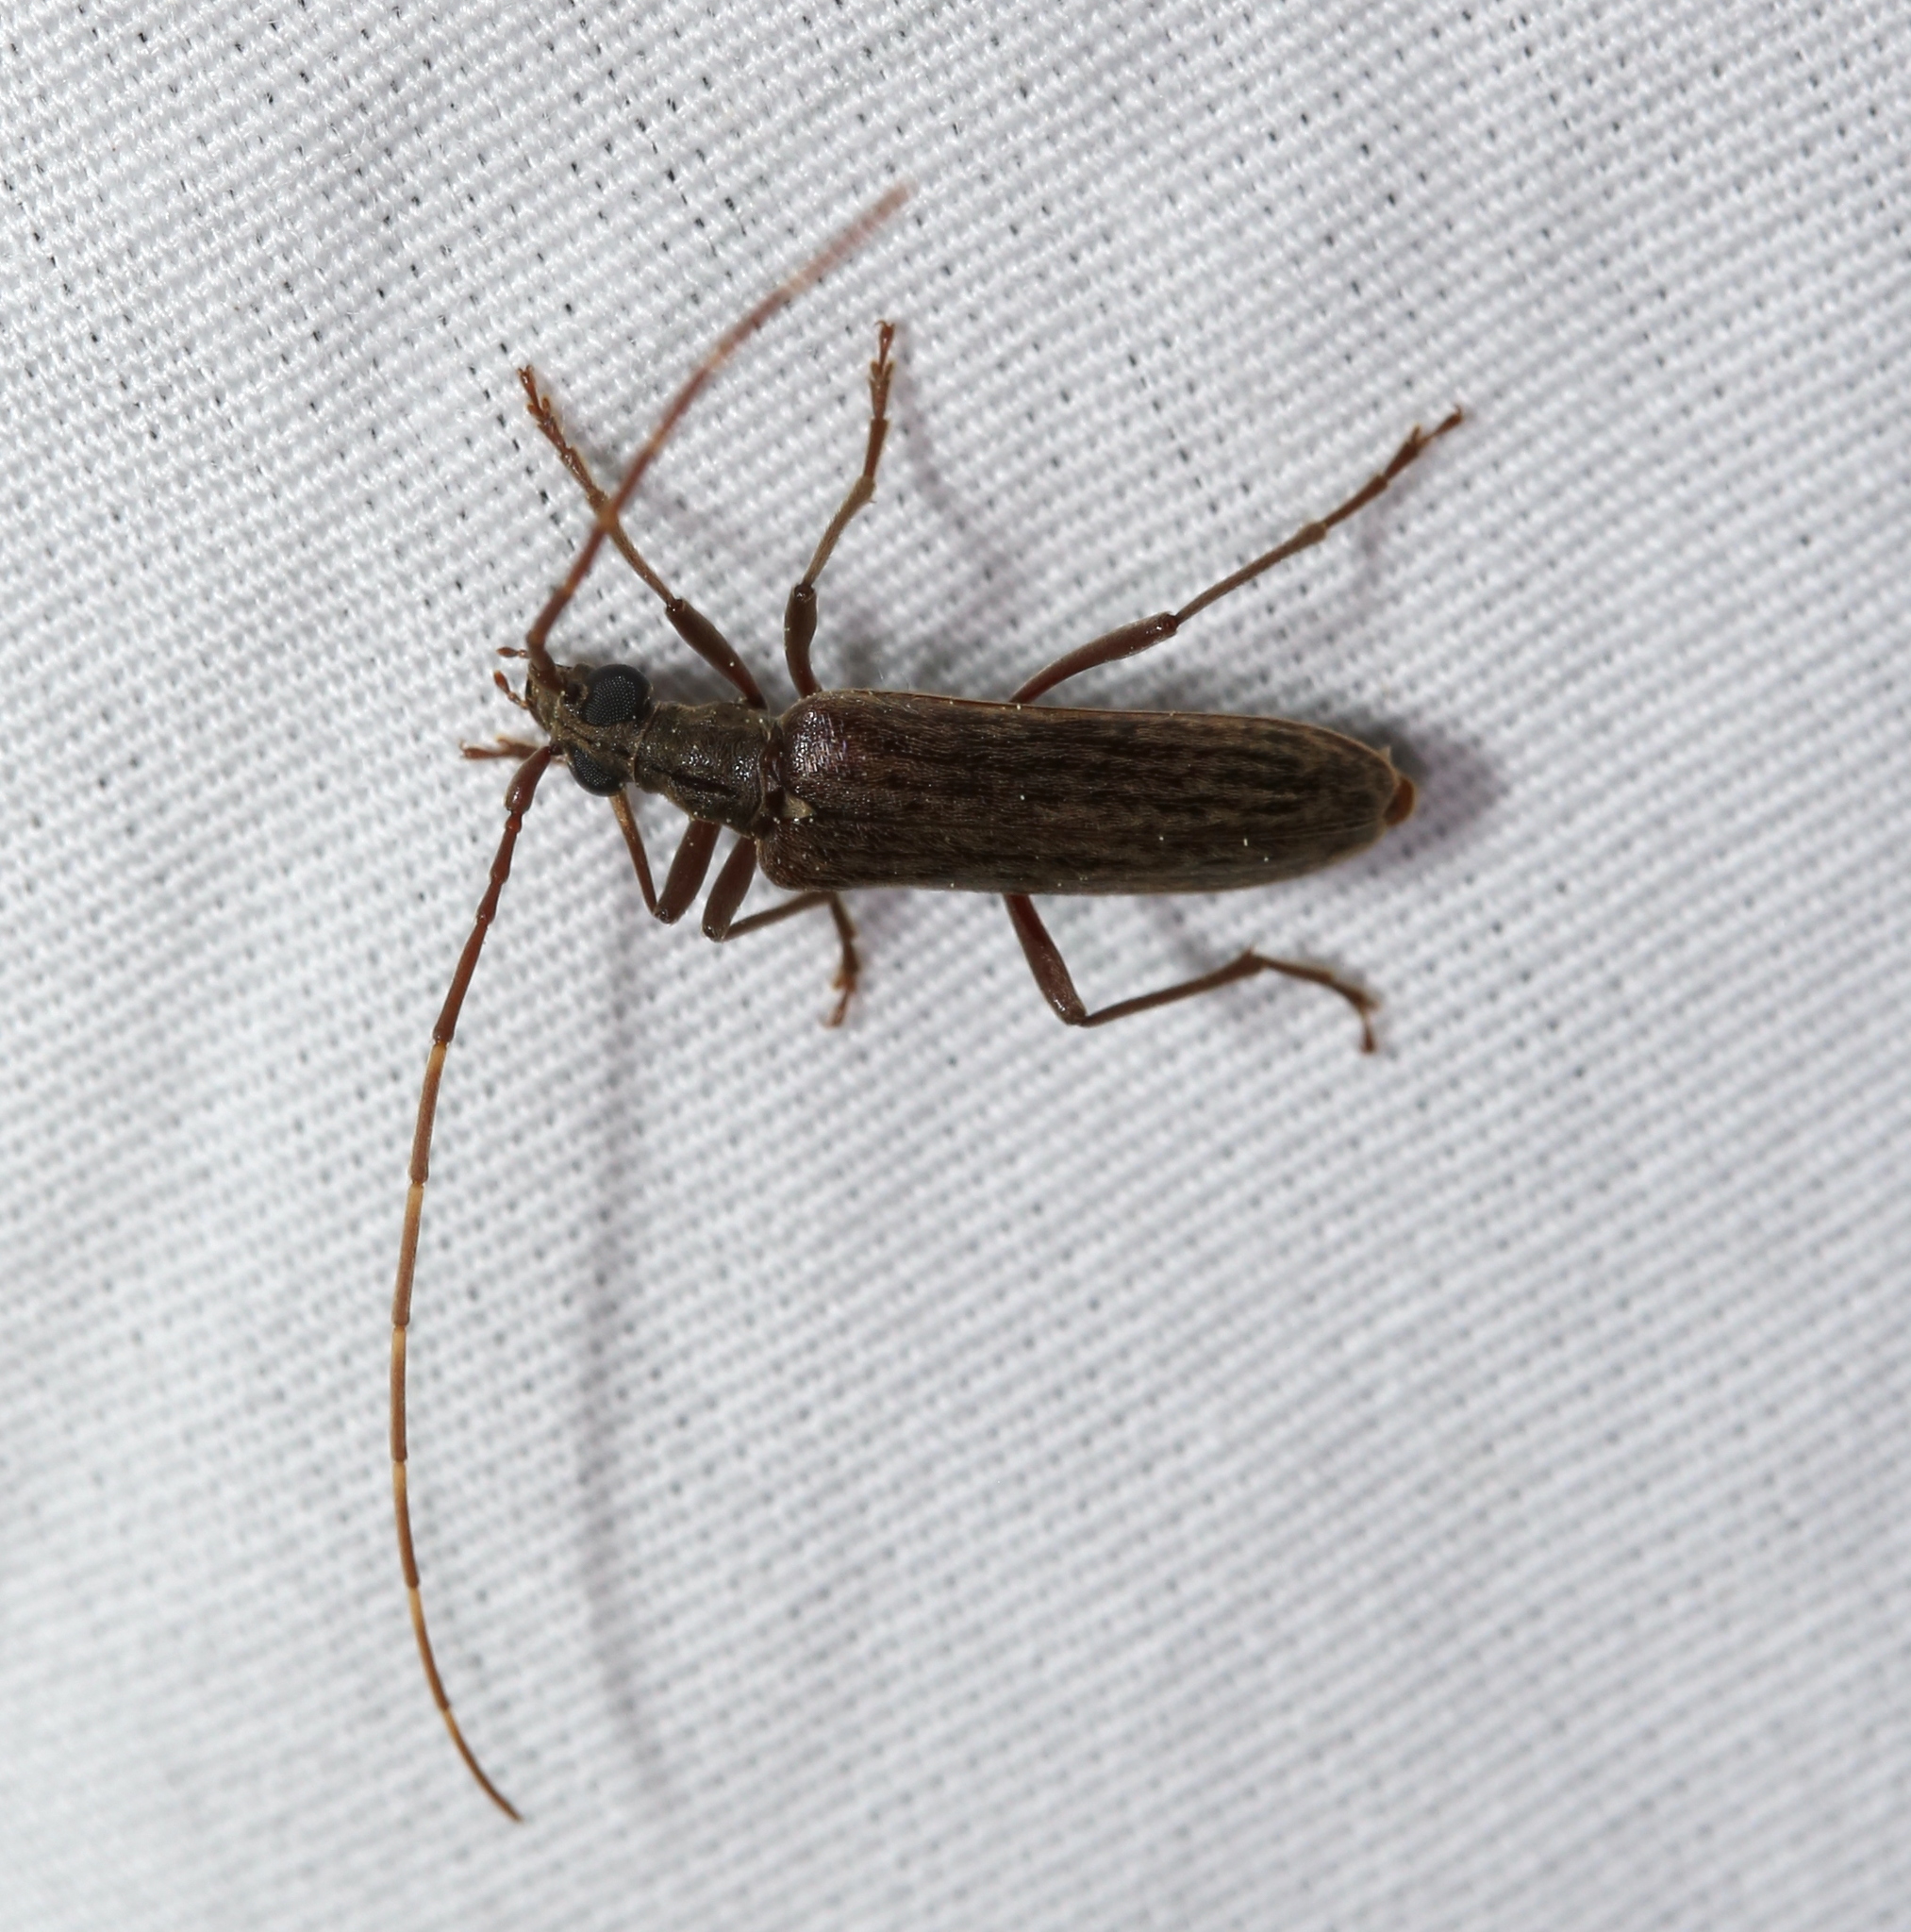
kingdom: Animalia
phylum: Arthropoda
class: Insecta
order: Coleoptera
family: Cerambycidae
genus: Centrodera
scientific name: Centrodera sublineata
